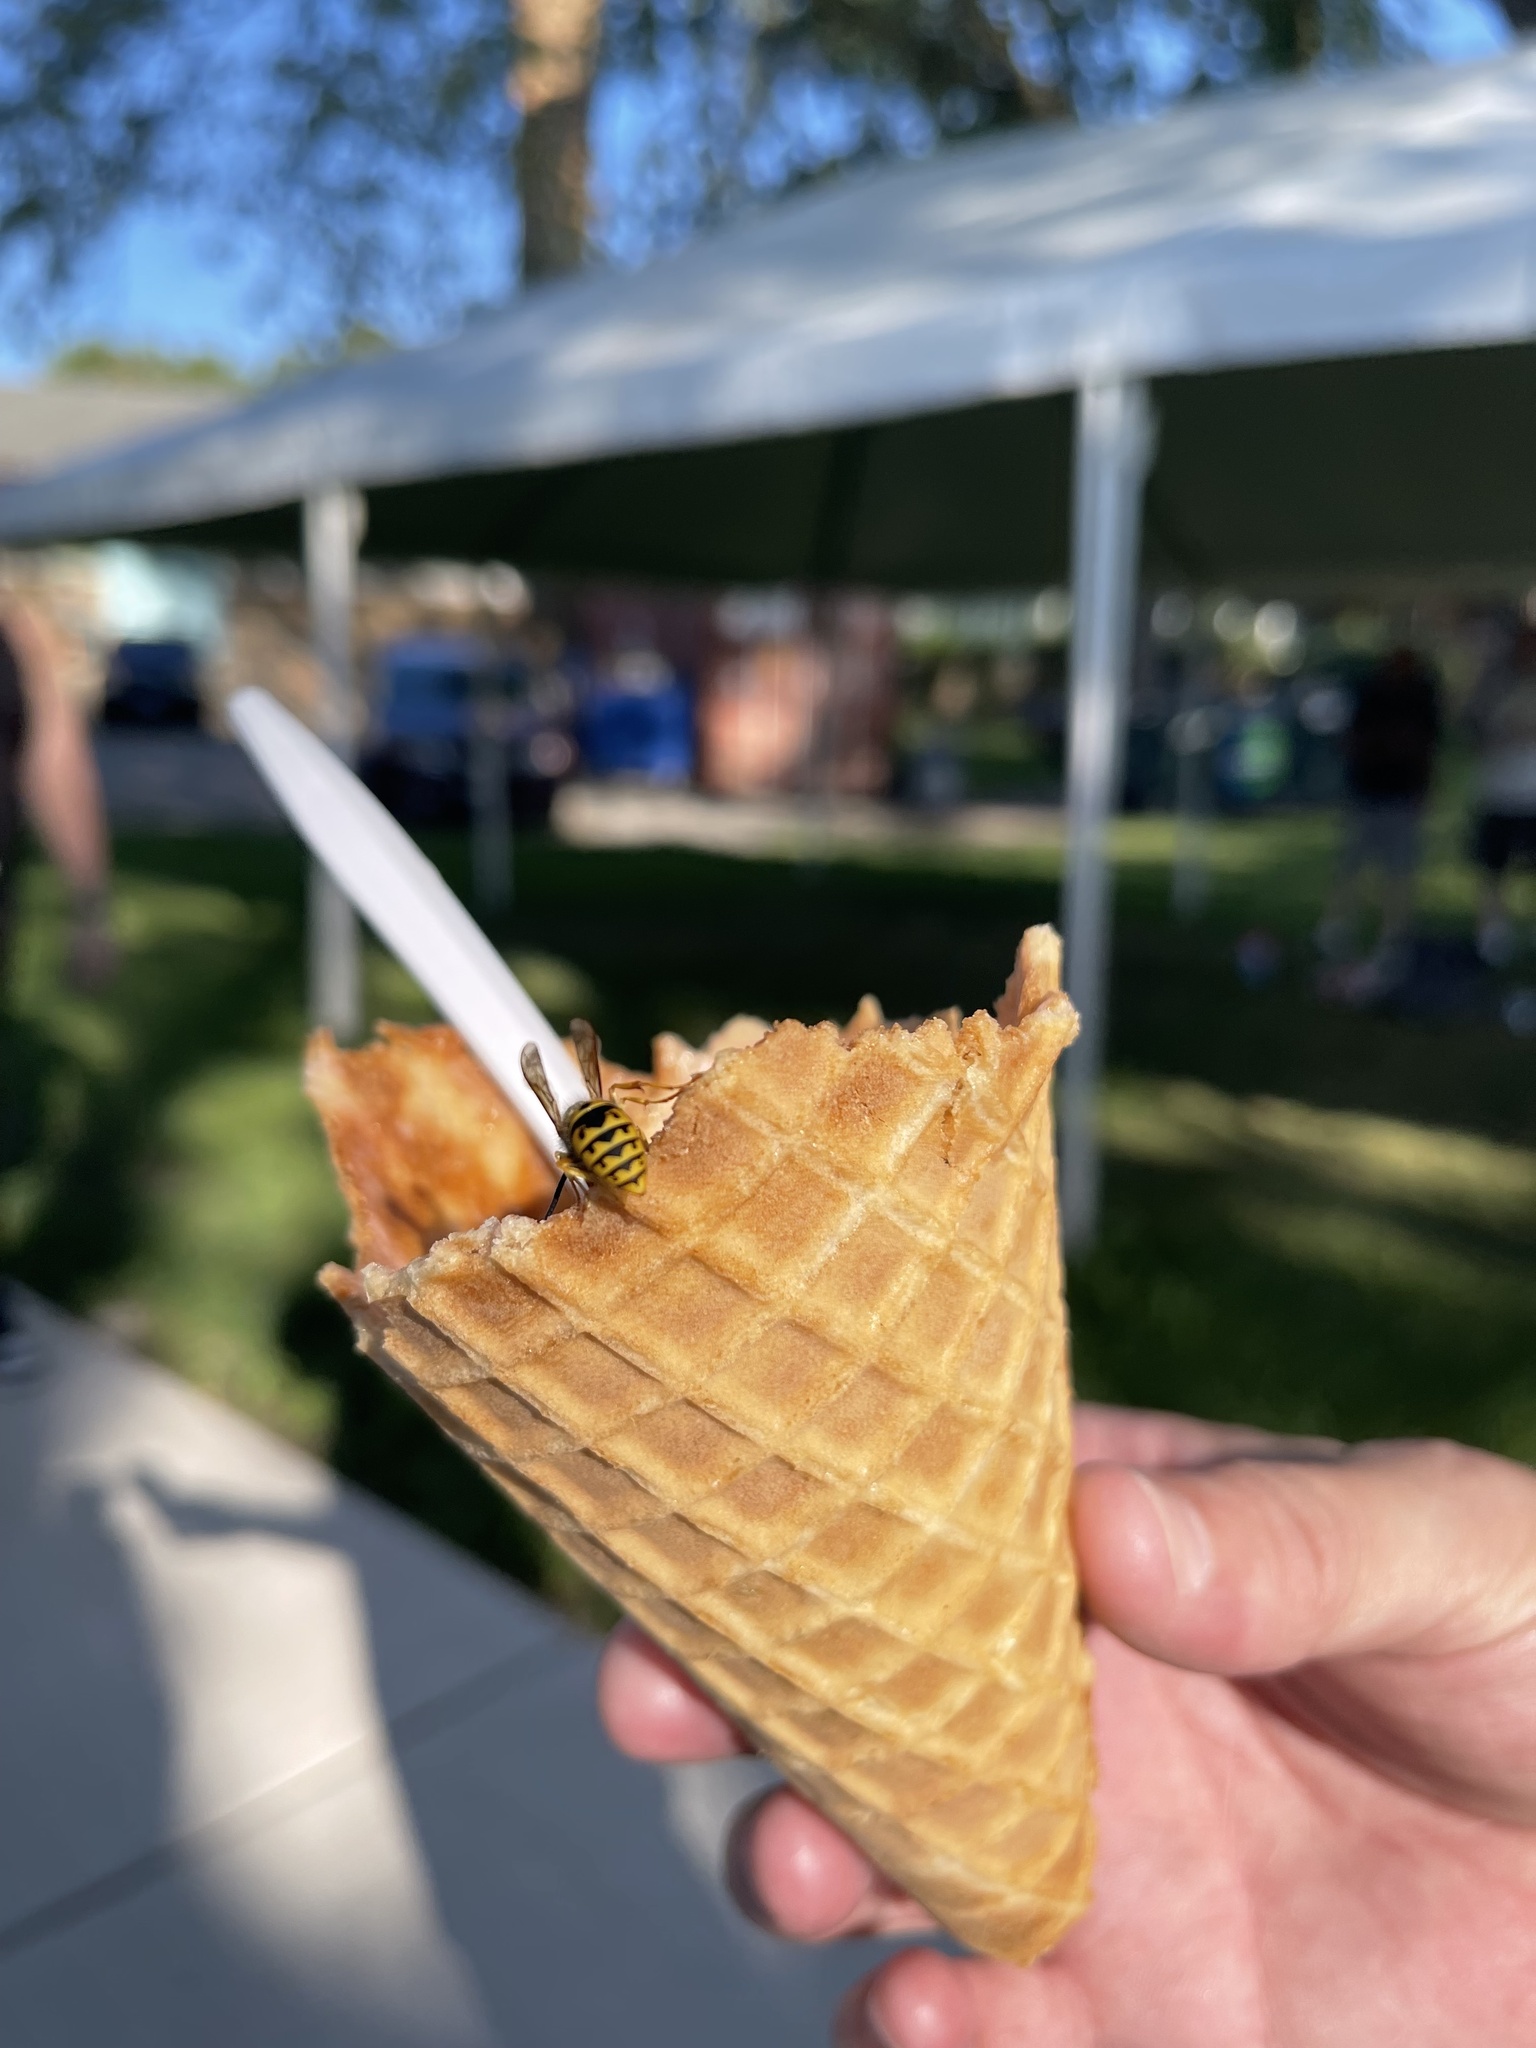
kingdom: Animalia
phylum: Arthropoda
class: Insecta
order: Hymenoptera
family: Vespidae
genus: Vespula
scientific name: Vespula germanica
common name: German wasp
